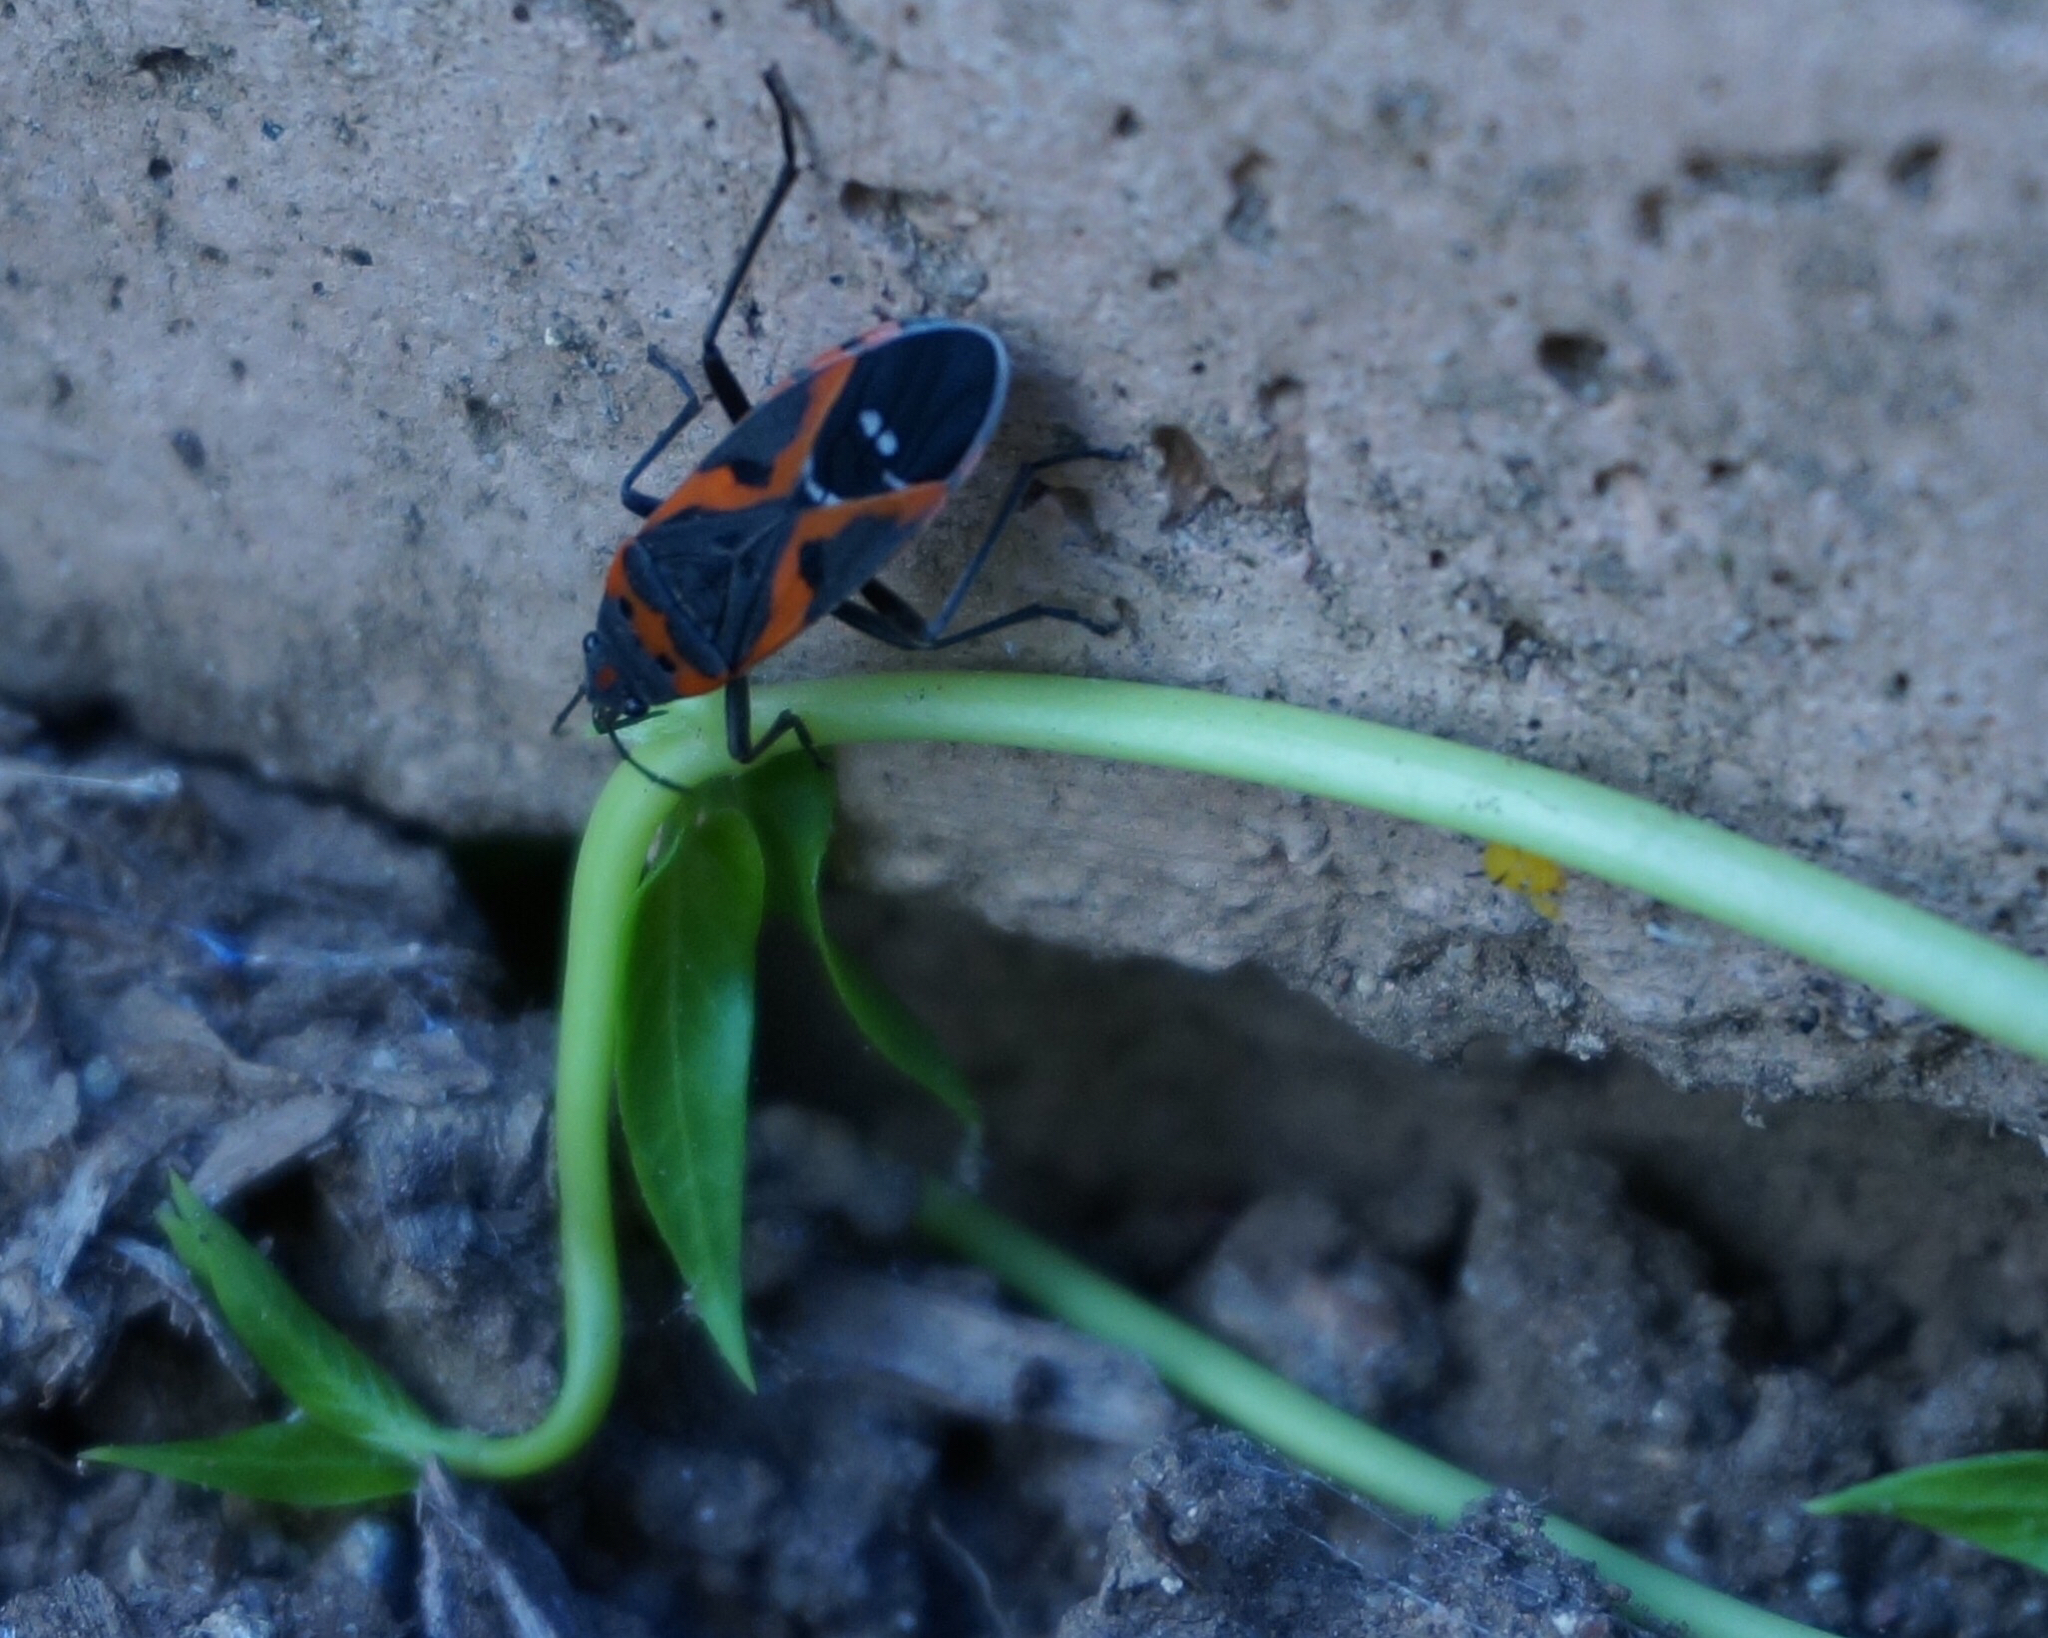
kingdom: Animalia
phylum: Arthropoda
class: Insecta
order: Hemiptera
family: Lygaeidae
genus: Lygaeus
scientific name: Lygaeus kalmii
